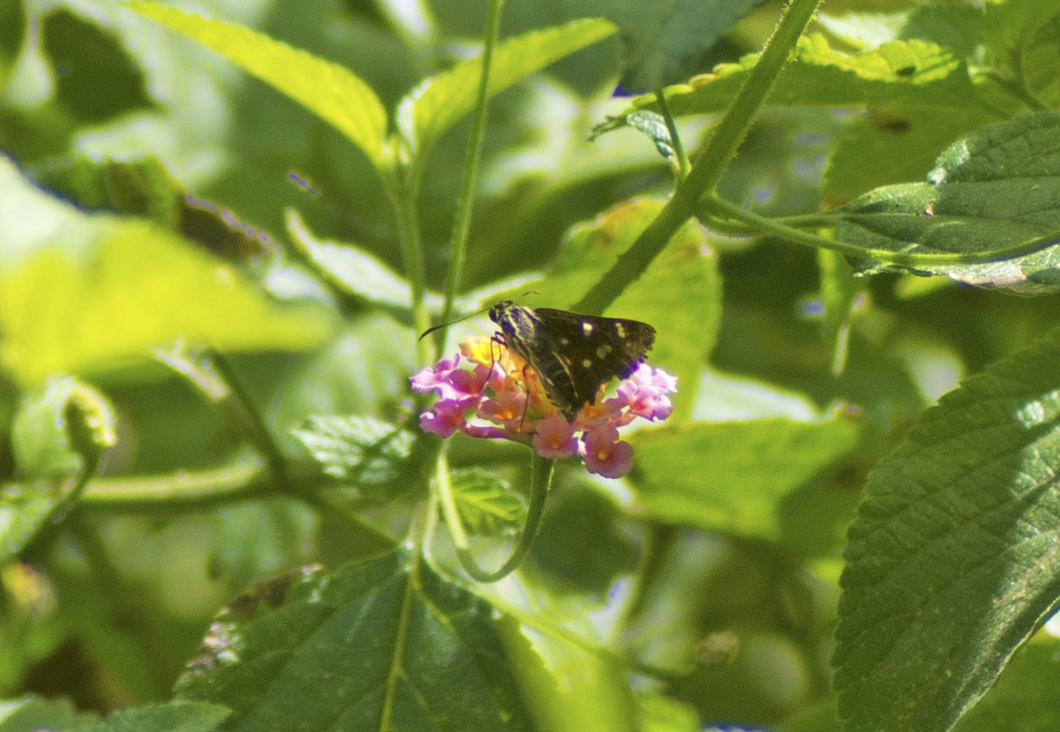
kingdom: Animalia
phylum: Arthropoda
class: Insecta
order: Lepidoptera
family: Hesperiidae
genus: Hesperilla
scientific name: Hesperilla ornata
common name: Spotted sedge-skipper
